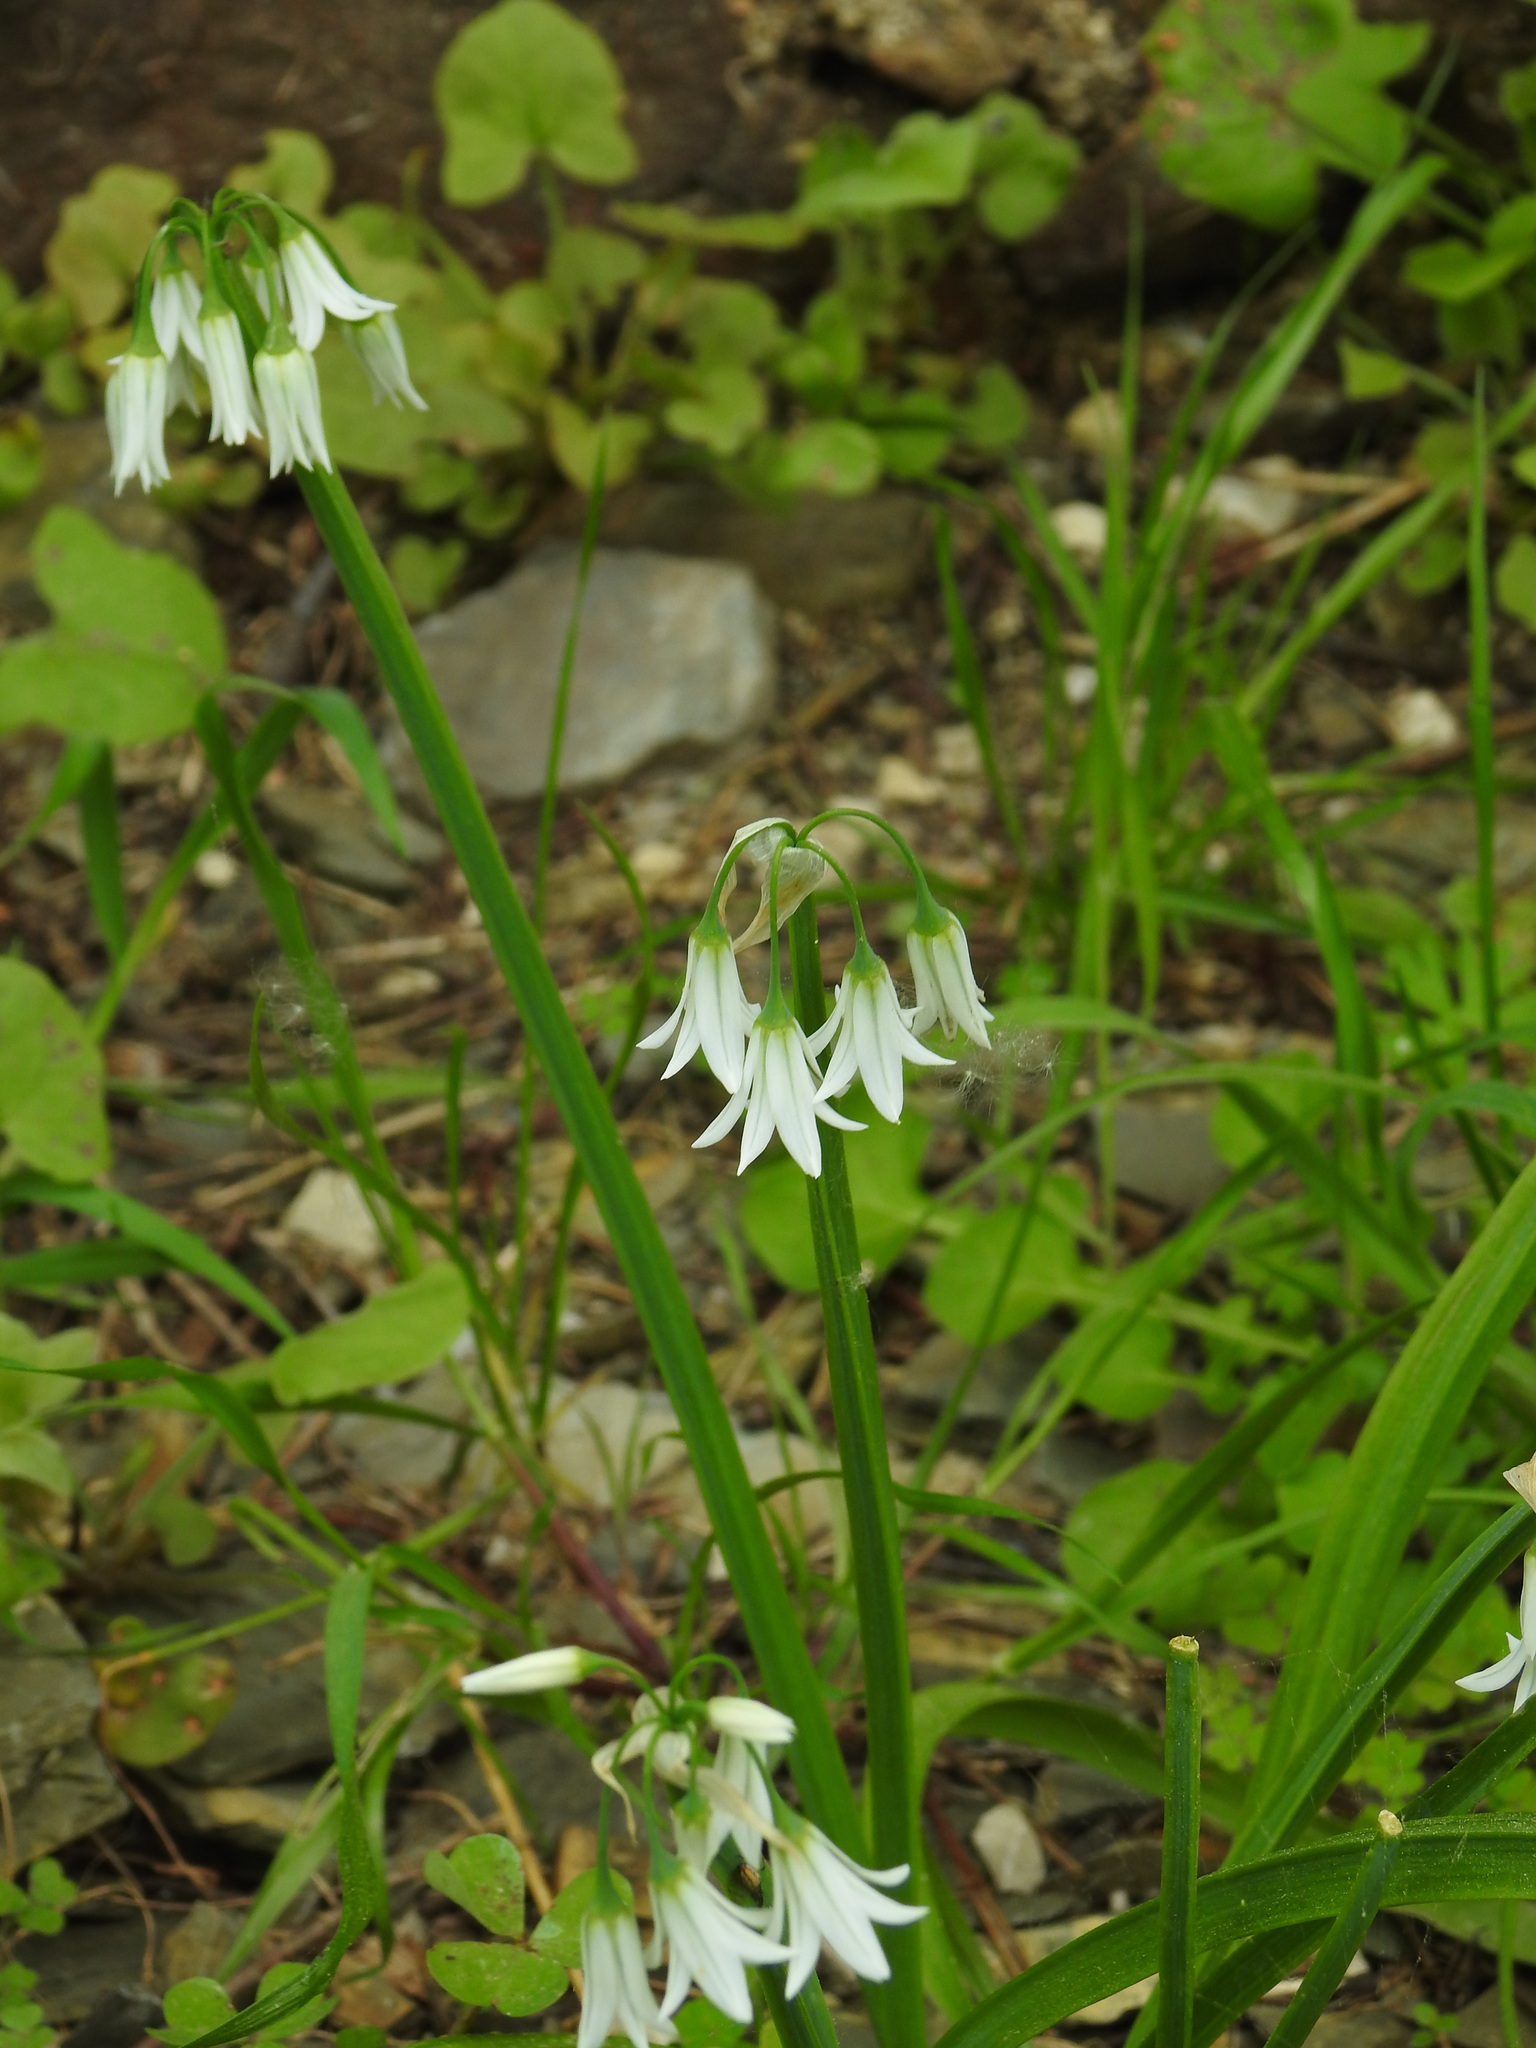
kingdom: Plantae
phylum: Tracheophyta
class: Liliopsida
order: Asparagales
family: Amaryllidaceae
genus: Allium
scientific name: Allium triquetrum
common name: Three-cornered garlic
